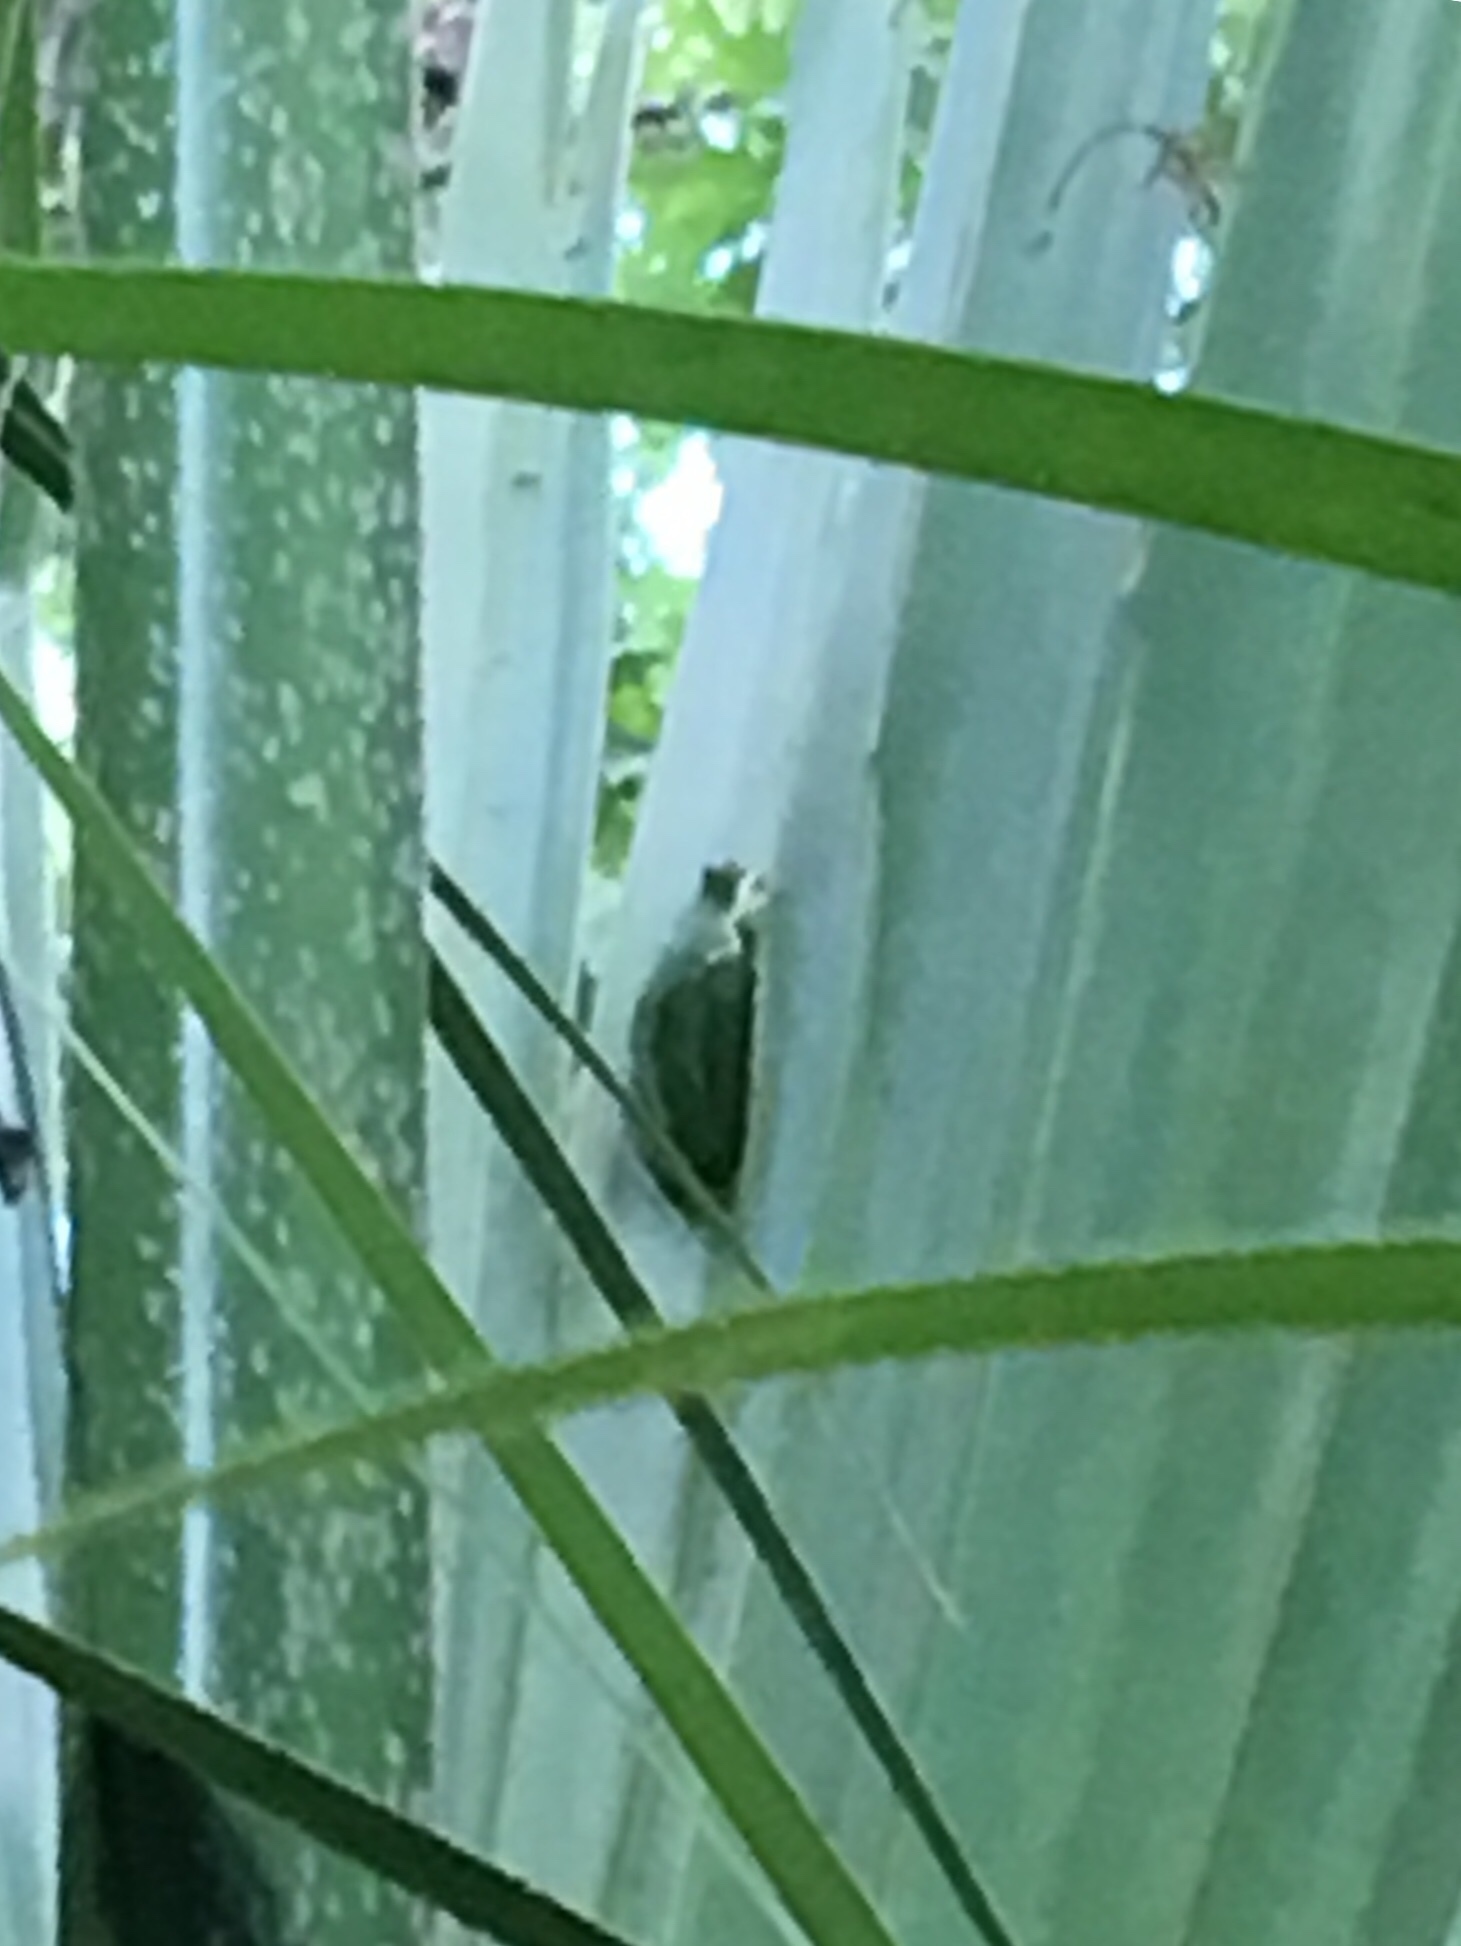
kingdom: Animalia
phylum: Chordata
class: Amphibia
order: Anura
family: Hylidae
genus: Dryophytes
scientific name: Dryophytes cinereus
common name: Green treefrog
